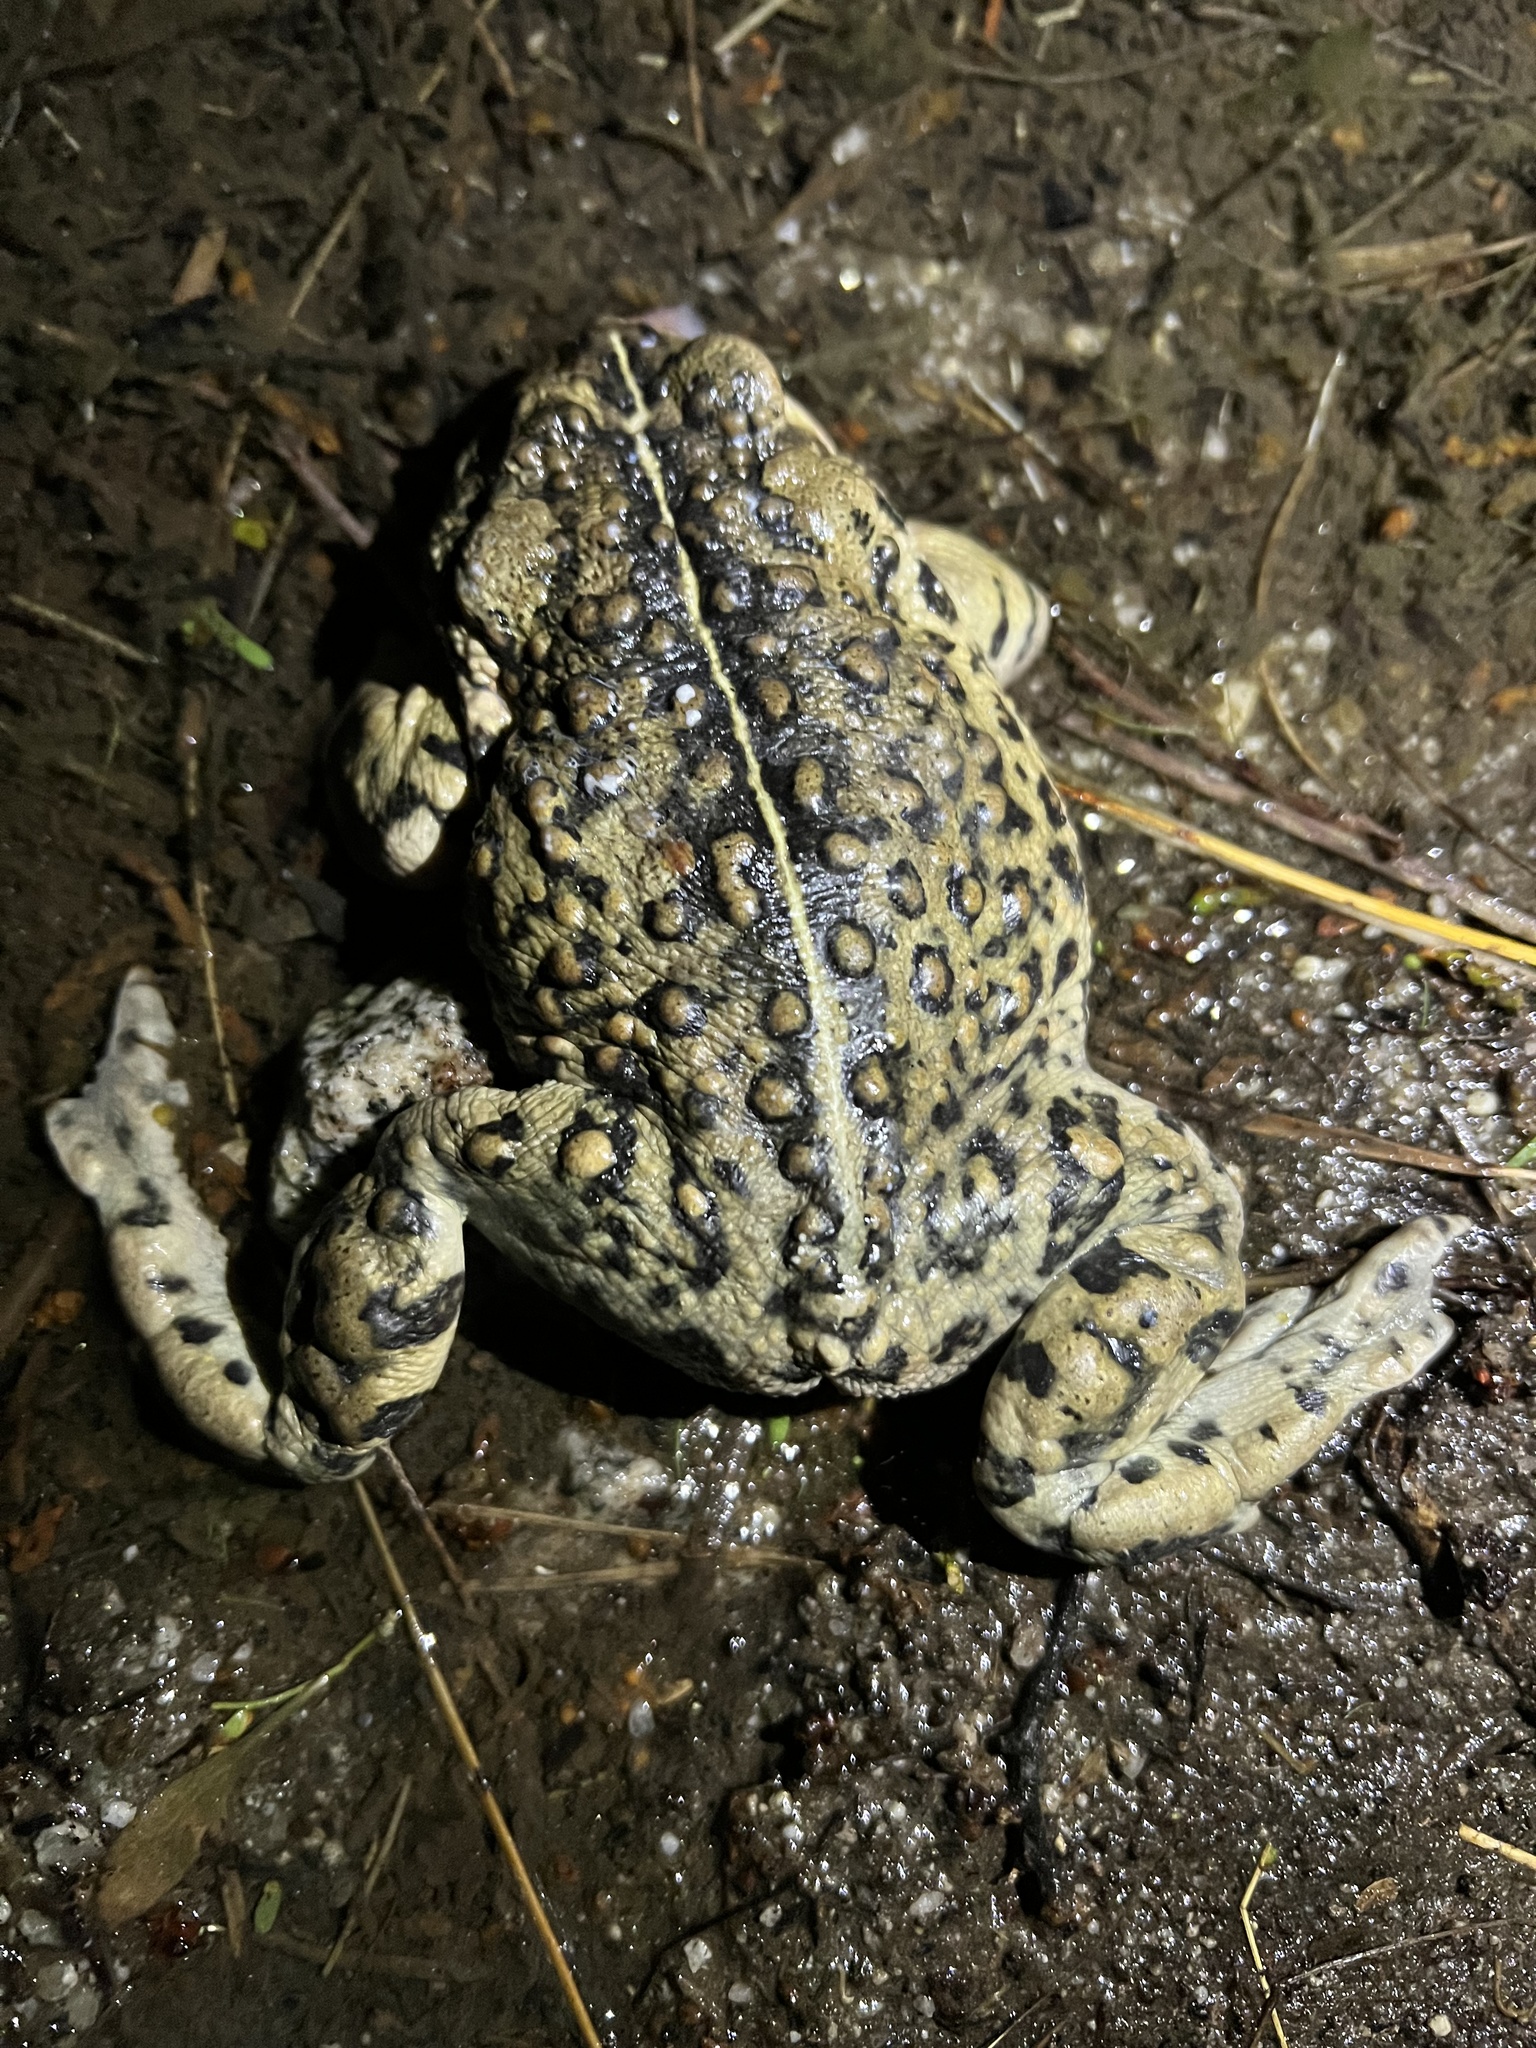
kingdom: Animalia
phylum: Chordata
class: Amphibia
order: Anura
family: Bufonidae
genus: Anaxyrus
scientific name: Anaxyrus boreas
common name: Western toad
